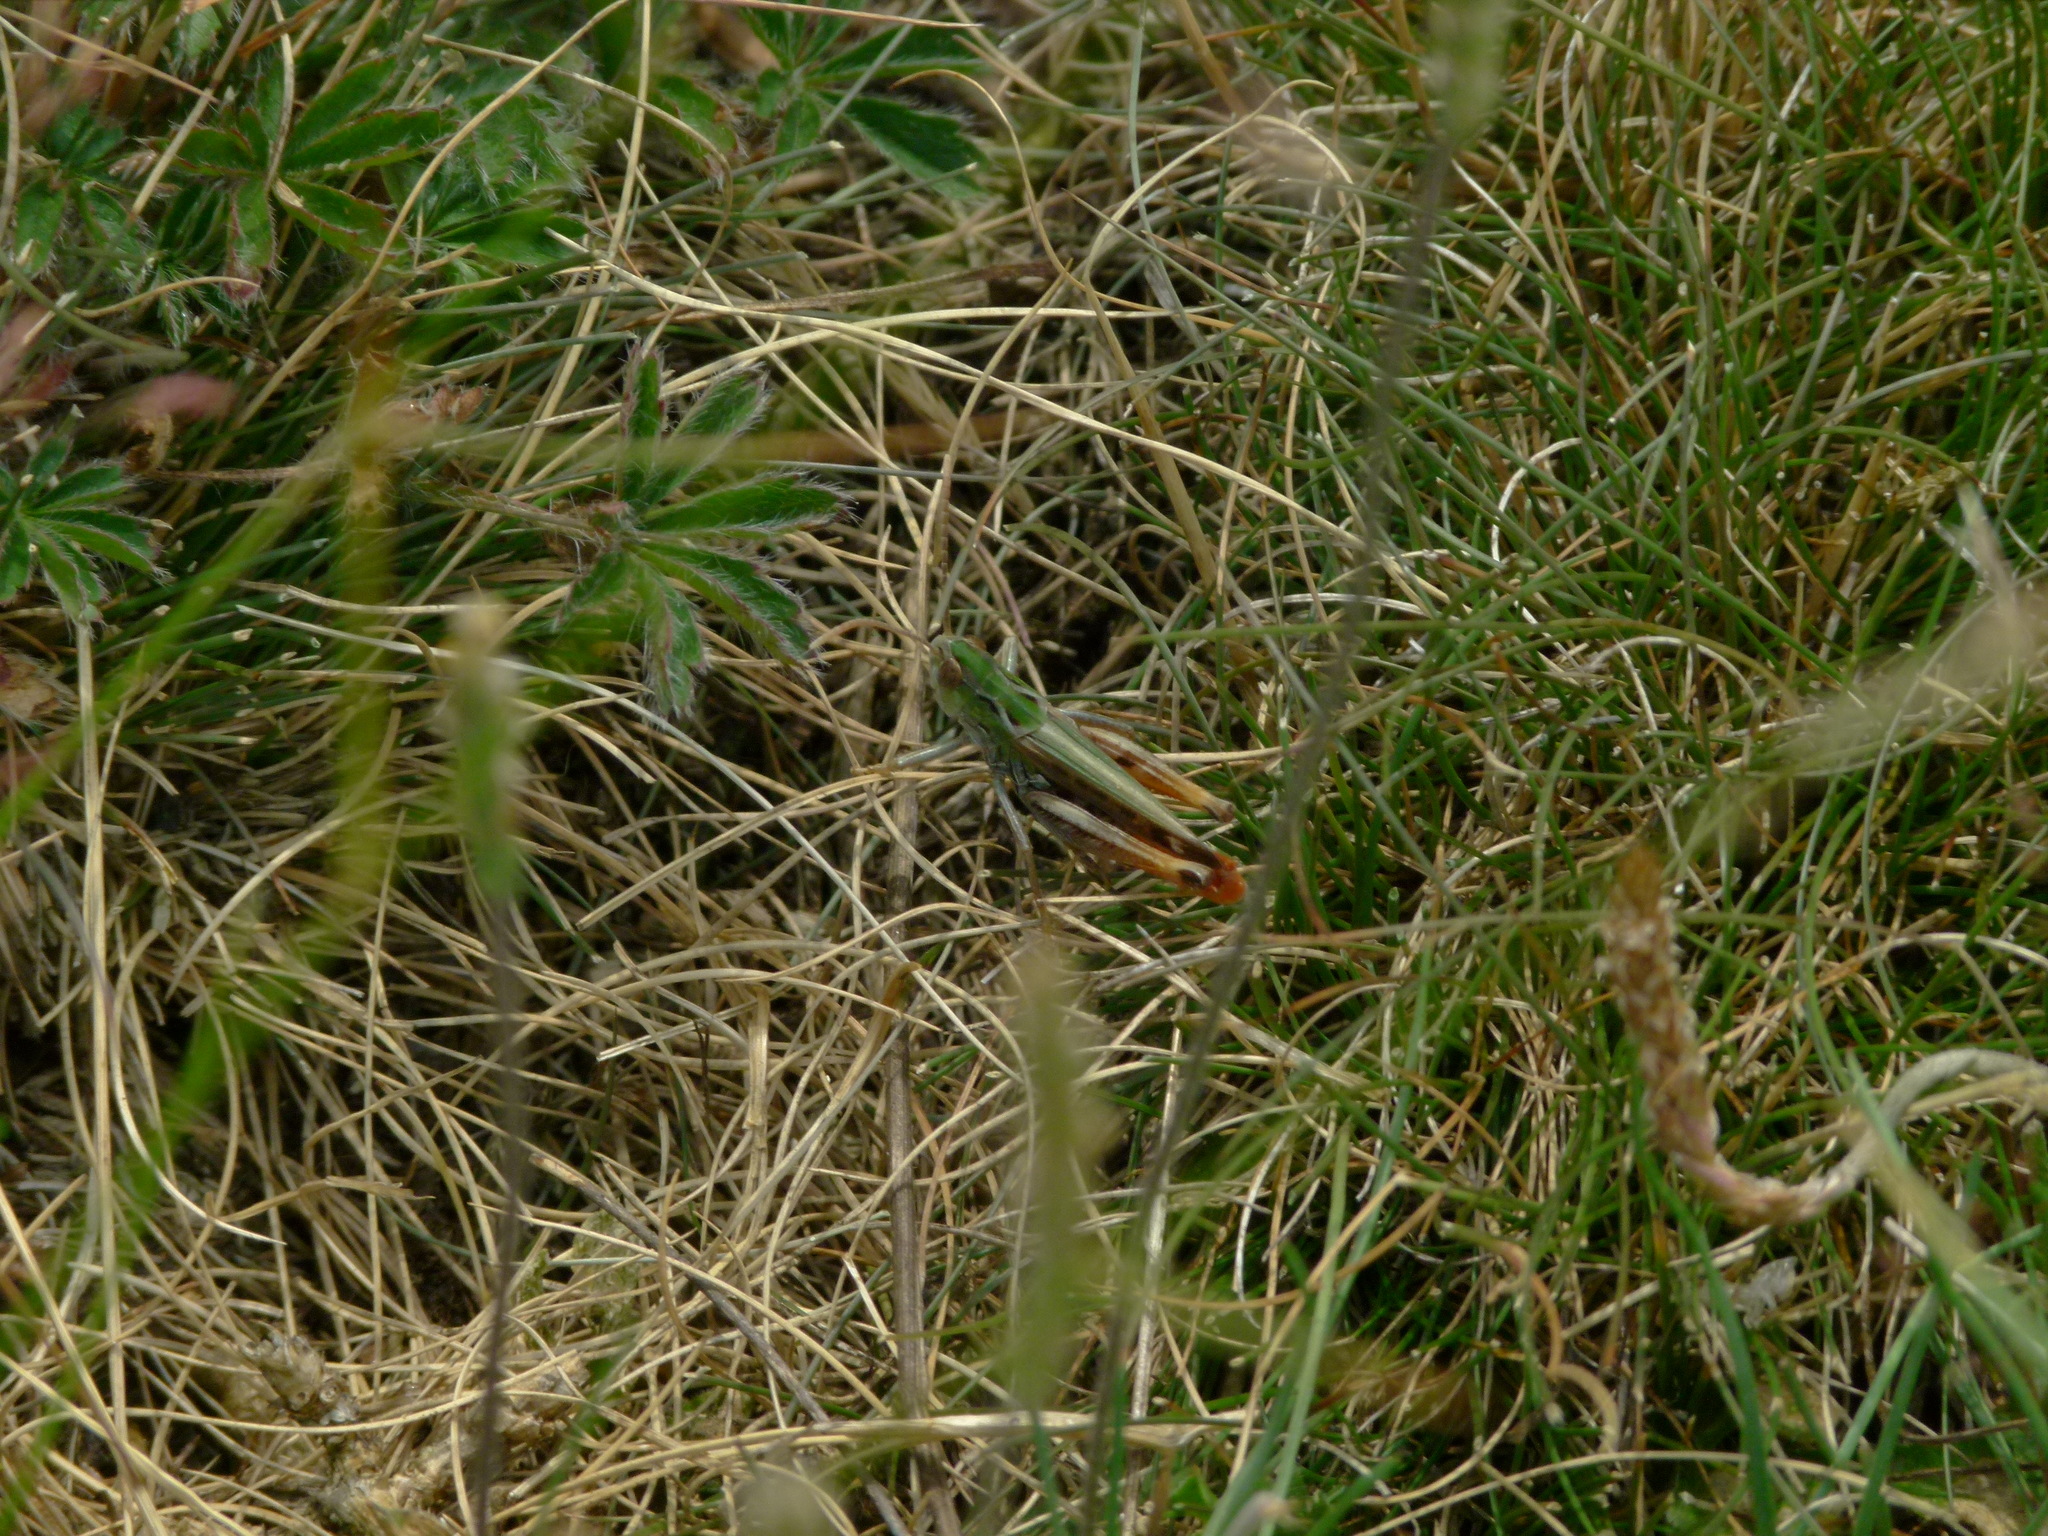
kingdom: Animalia
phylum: Arthropoda
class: Insecta
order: Orthoptera
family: Acrididae
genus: Stenobothrus
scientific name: Stenobothrus nigromaculatus
